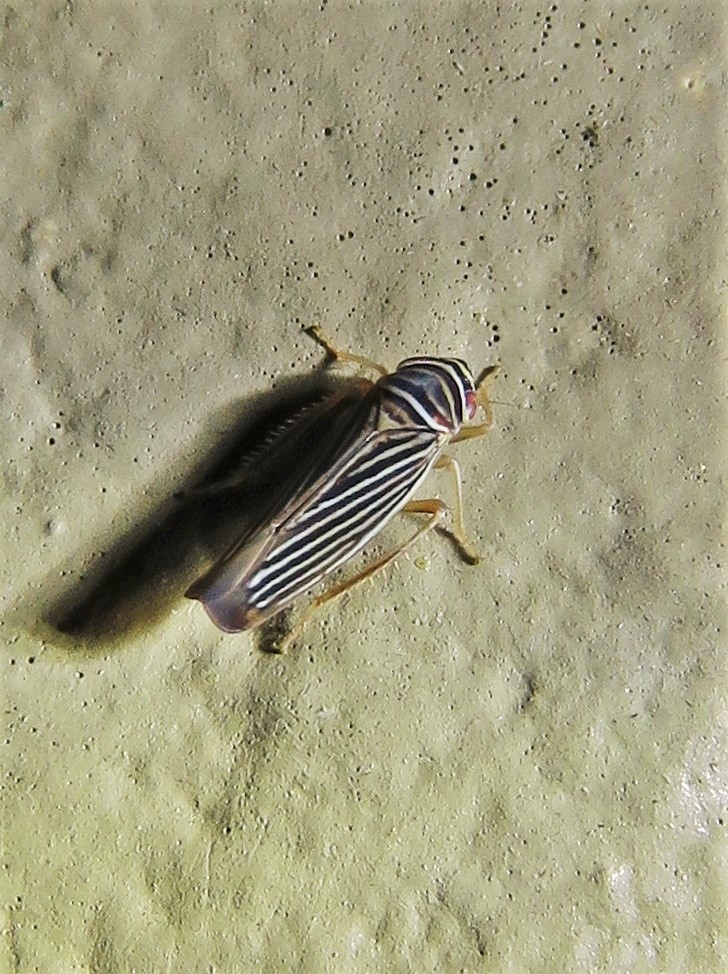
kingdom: Animalia
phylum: Arthropoda
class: Insecta
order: Hemiptera
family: Cicadellidae
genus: Tylozygus
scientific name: Tylozygus bifidus
